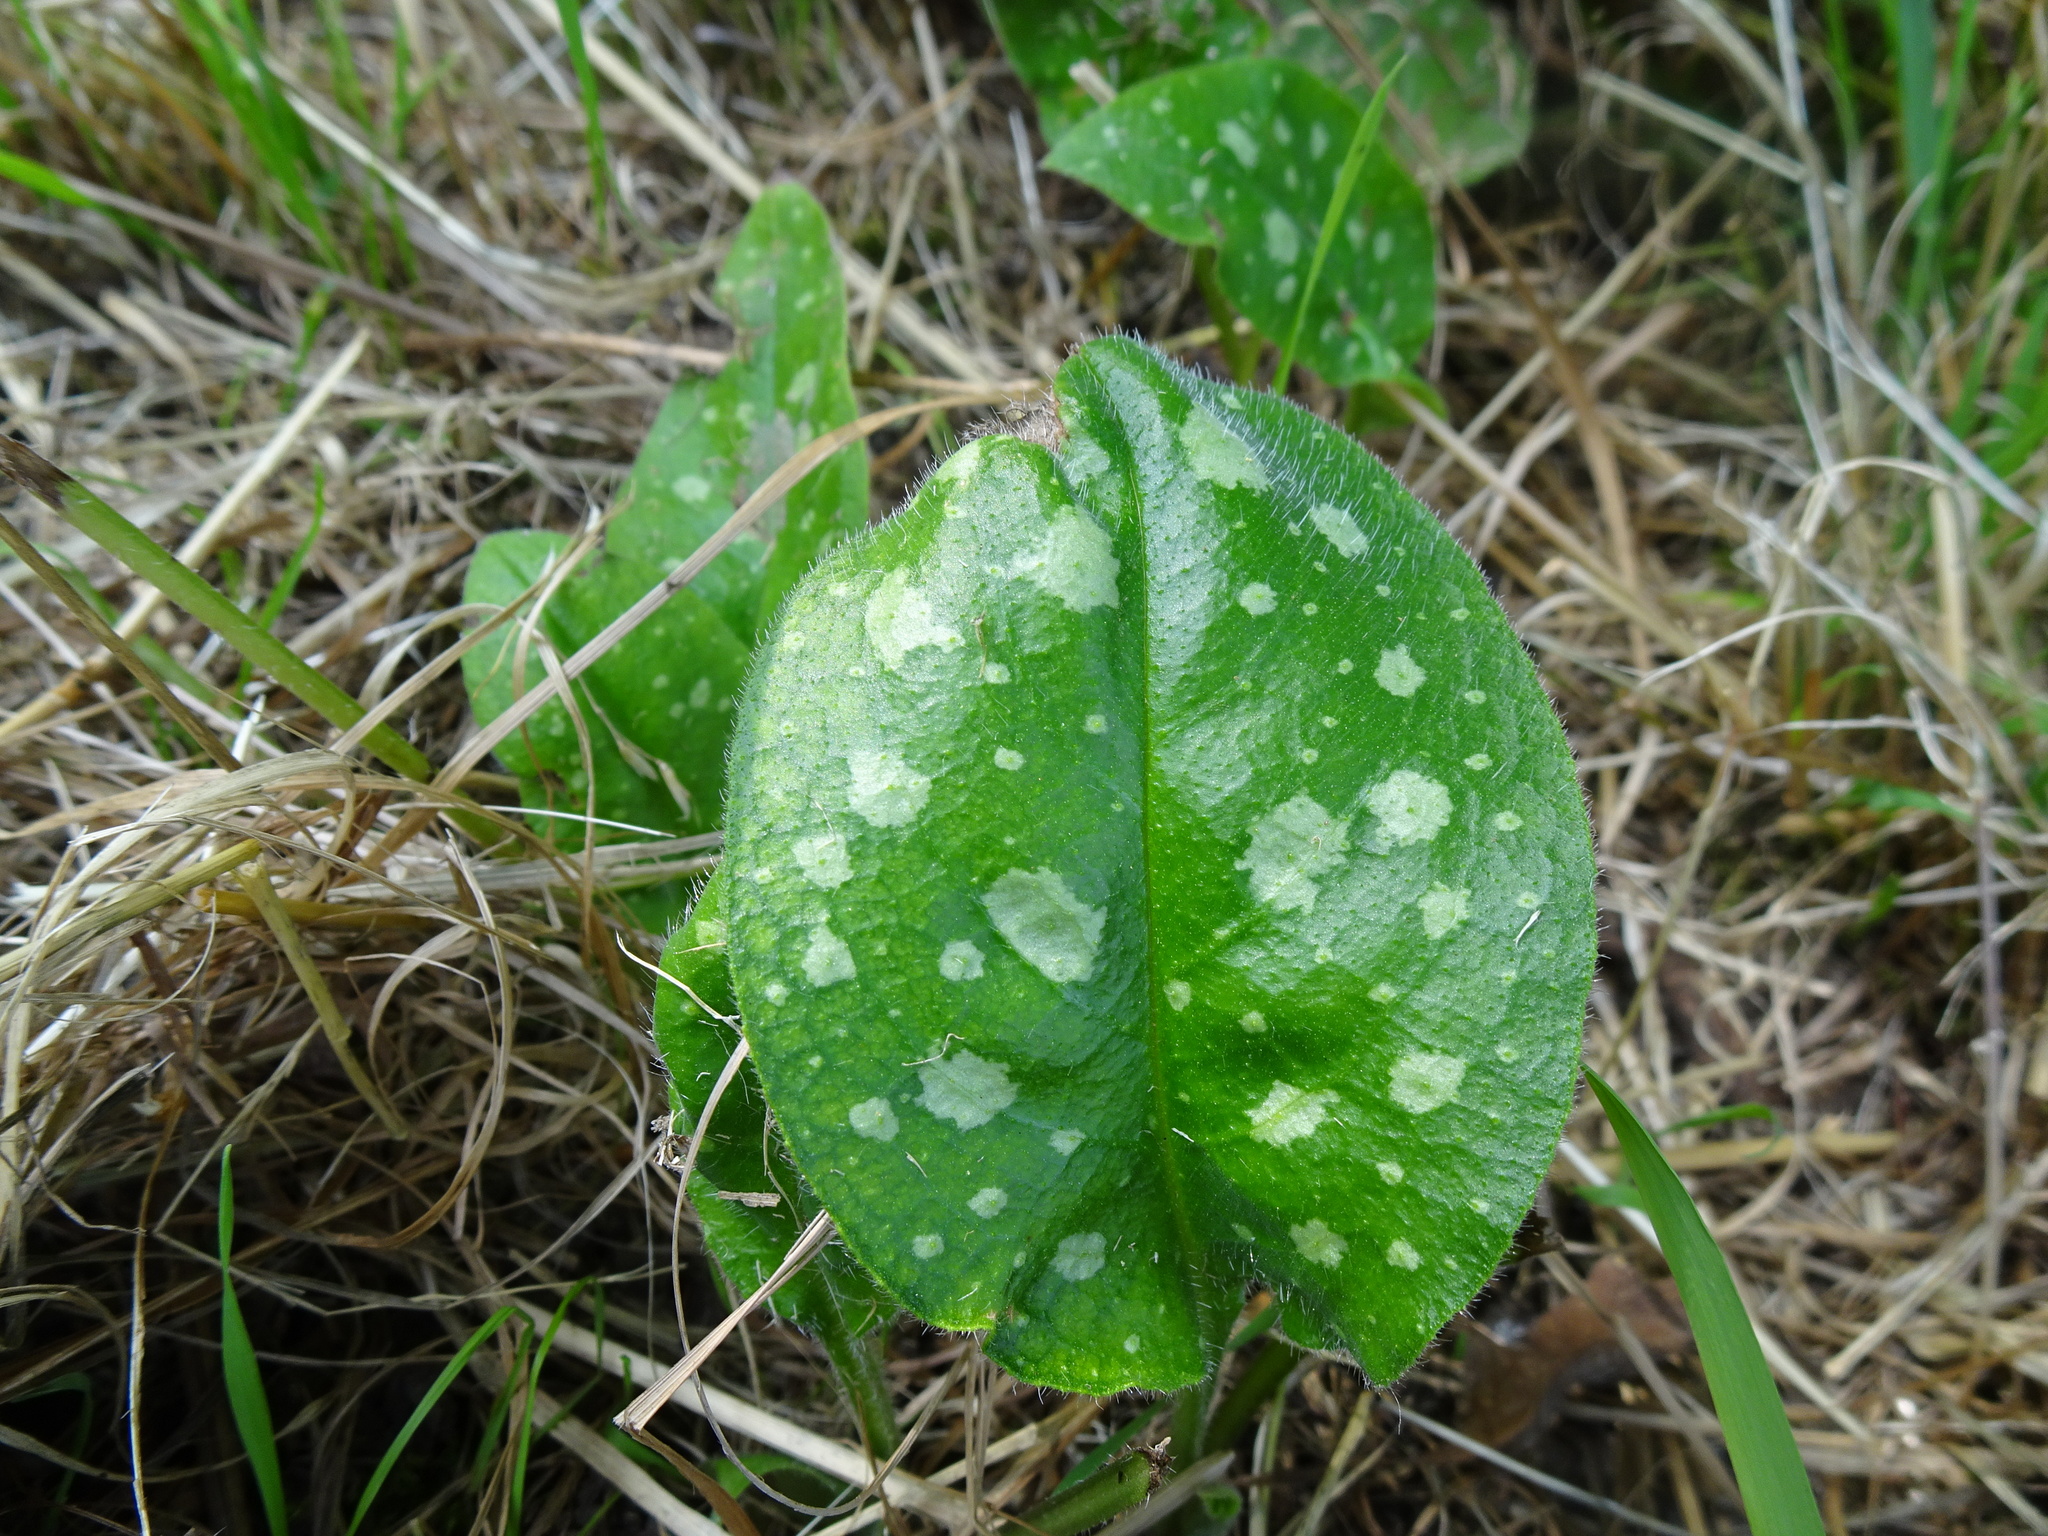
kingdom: Plantae
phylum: Tracheophyta
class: Magnoliopsida
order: Boraginales
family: Boraginaceae
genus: Pulmonaria
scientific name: Pulmonaria officinalis
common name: Lungwort
